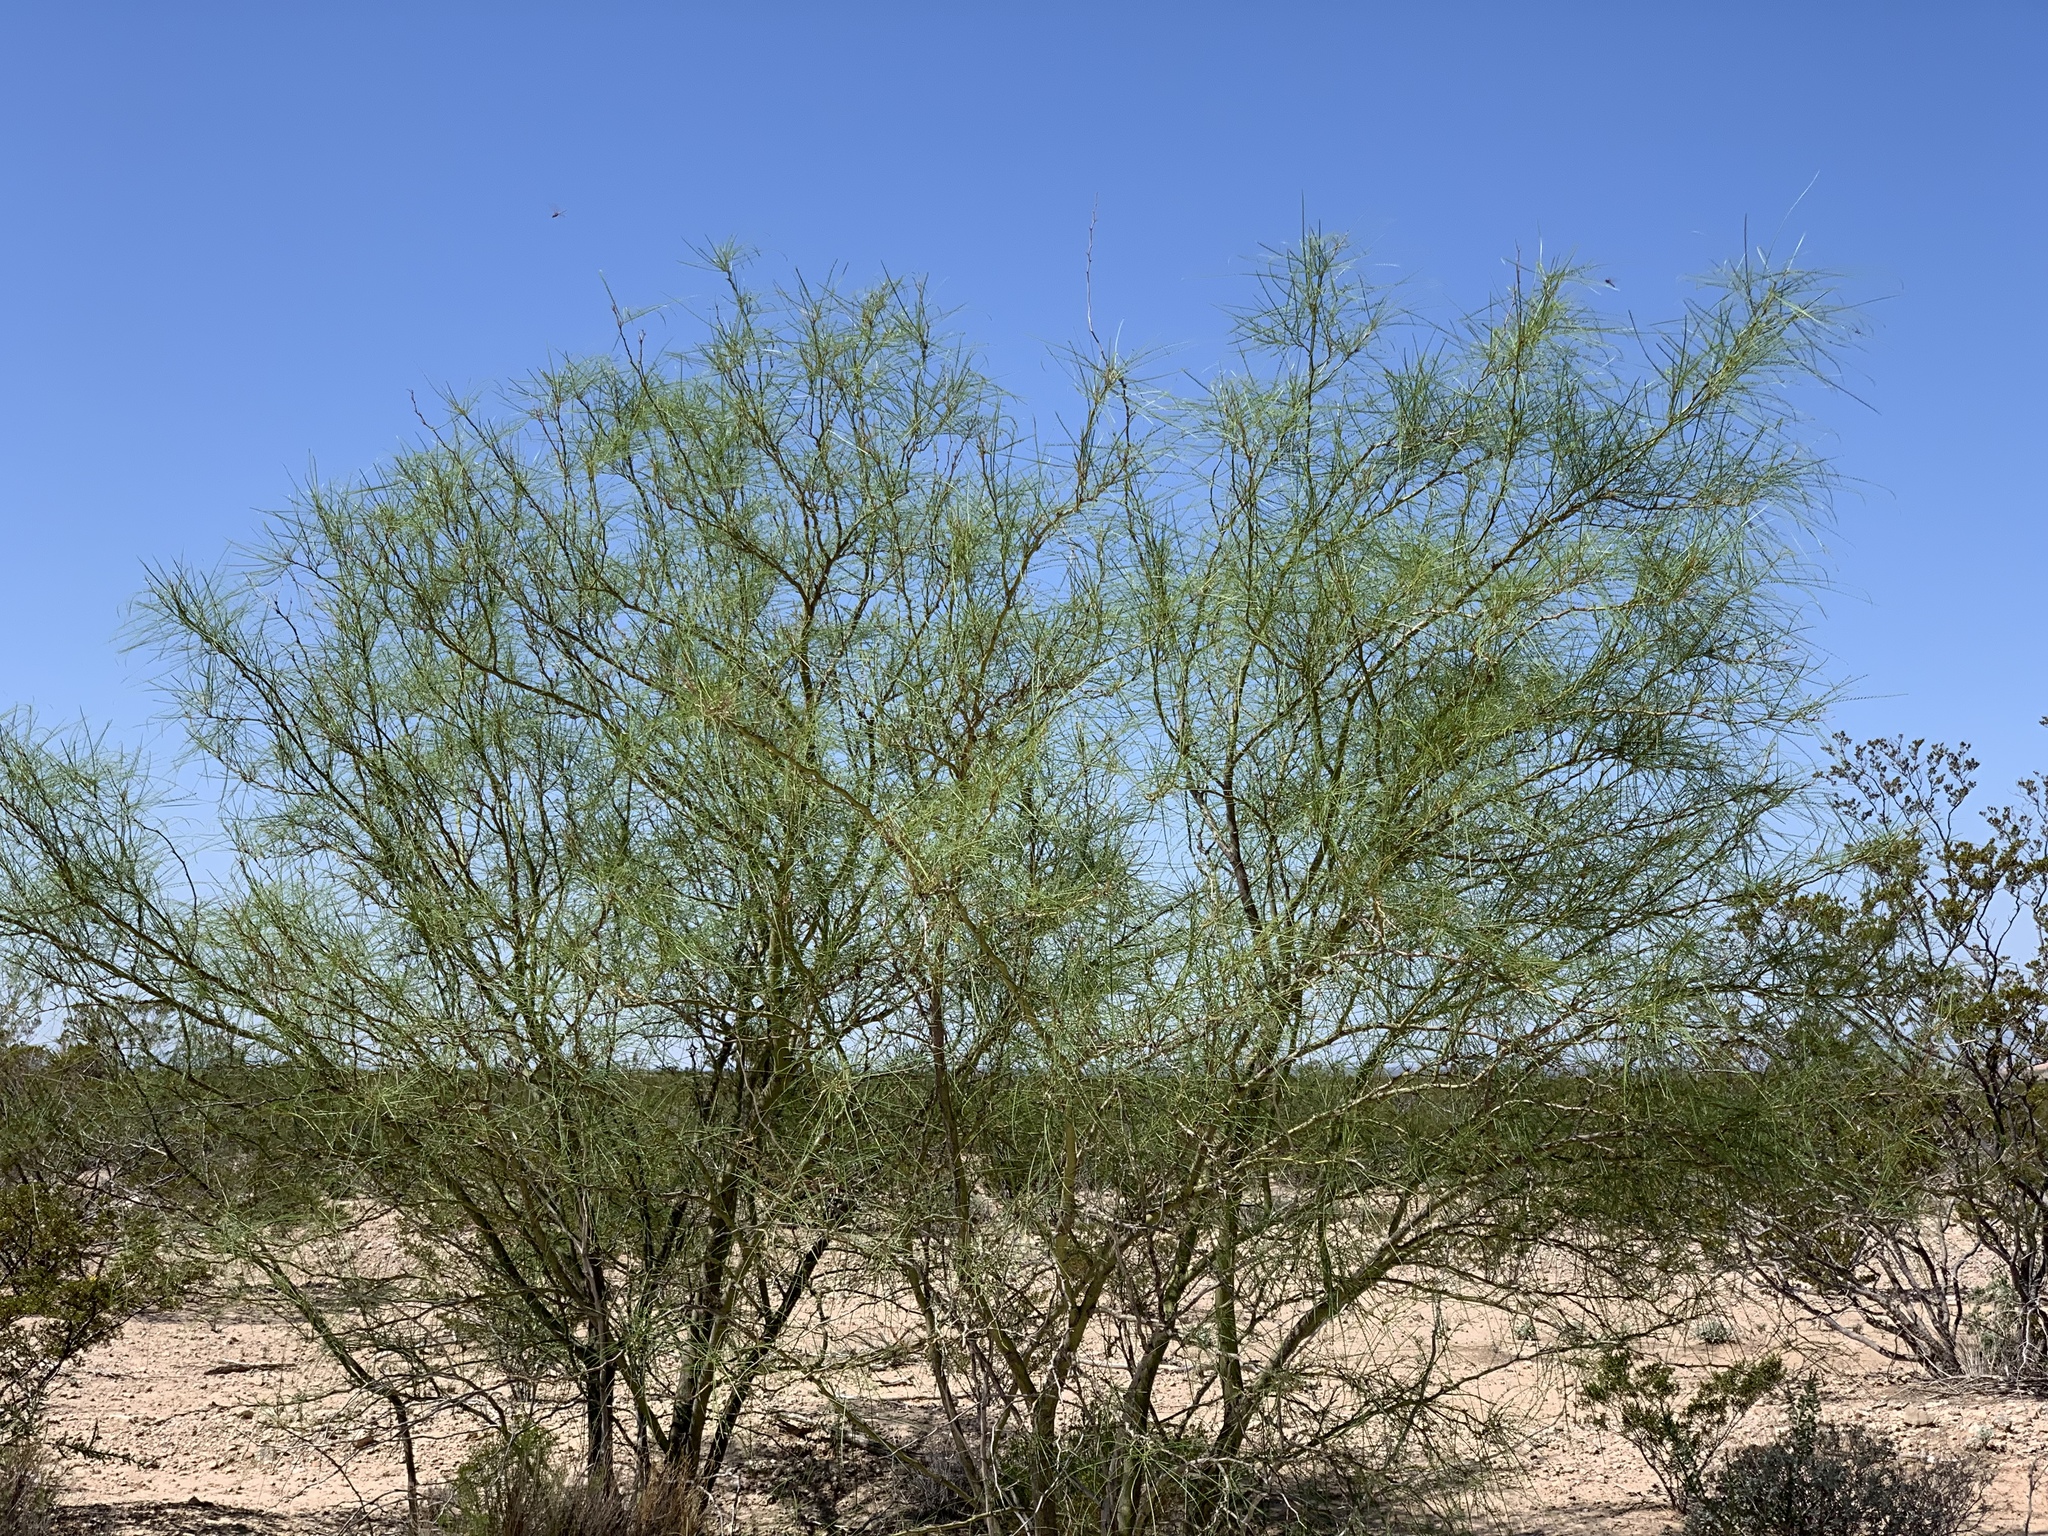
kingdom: Plantae
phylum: Tracheophyta
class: Magnoliopsida
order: Fabales
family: Fabaceae
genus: Parkinsonia
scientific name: Parkinsonia aculeata
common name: Jerusalem thorn
